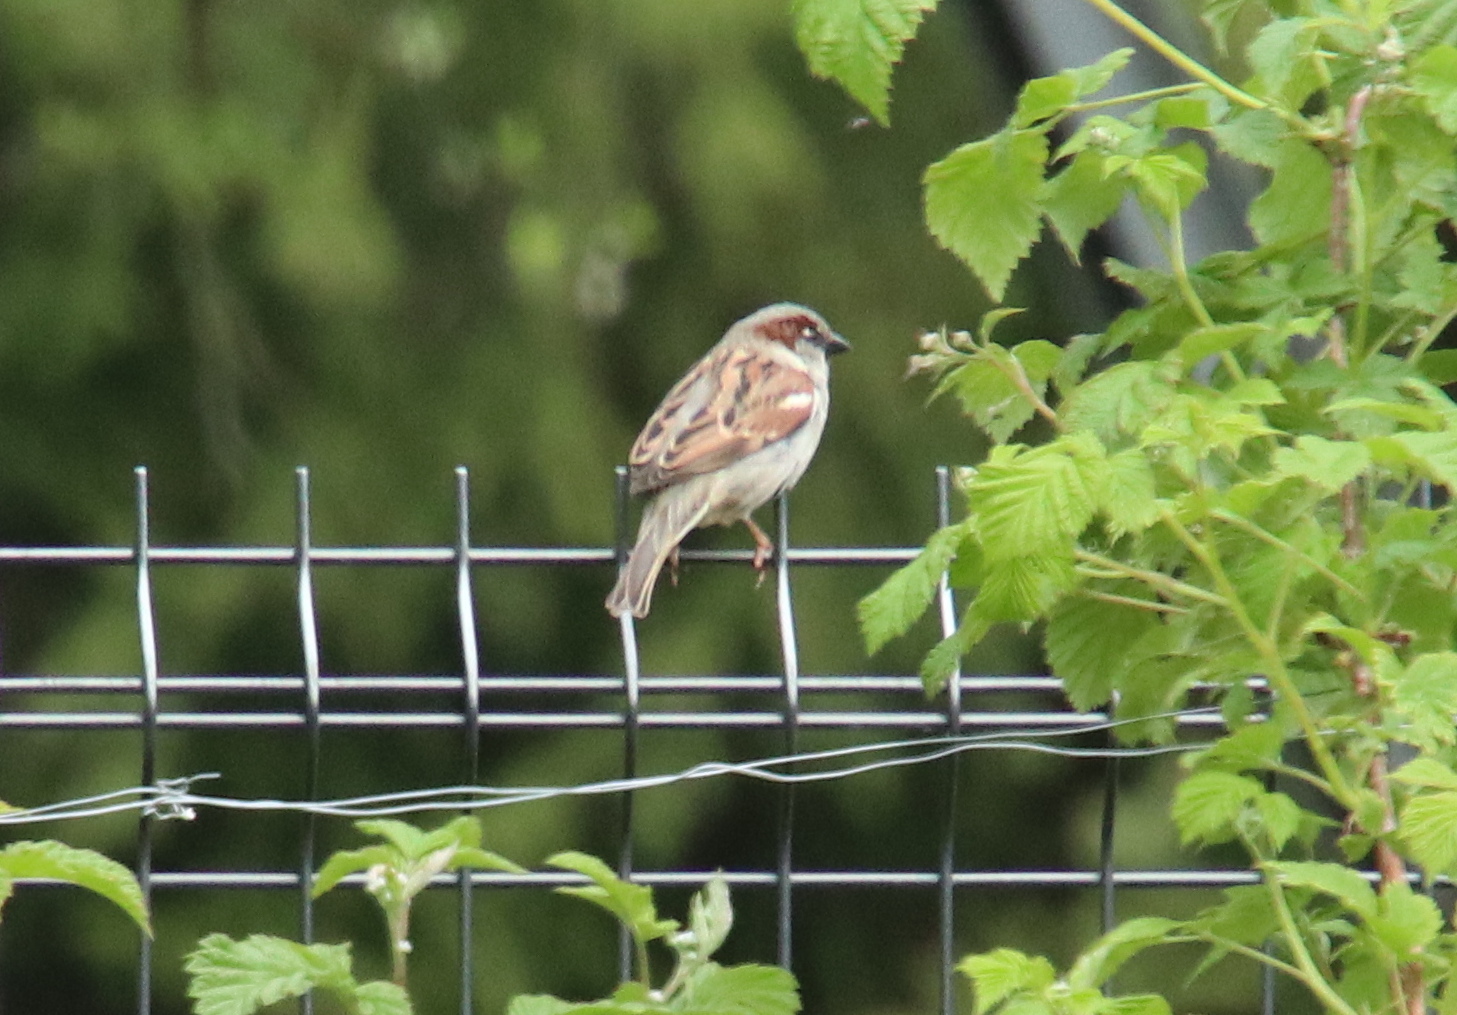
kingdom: Animalia
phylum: Chordata
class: Aves
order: Passeriformes
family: Passeridae
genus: Passer
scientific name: Passer domesticus
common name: House sparrow
